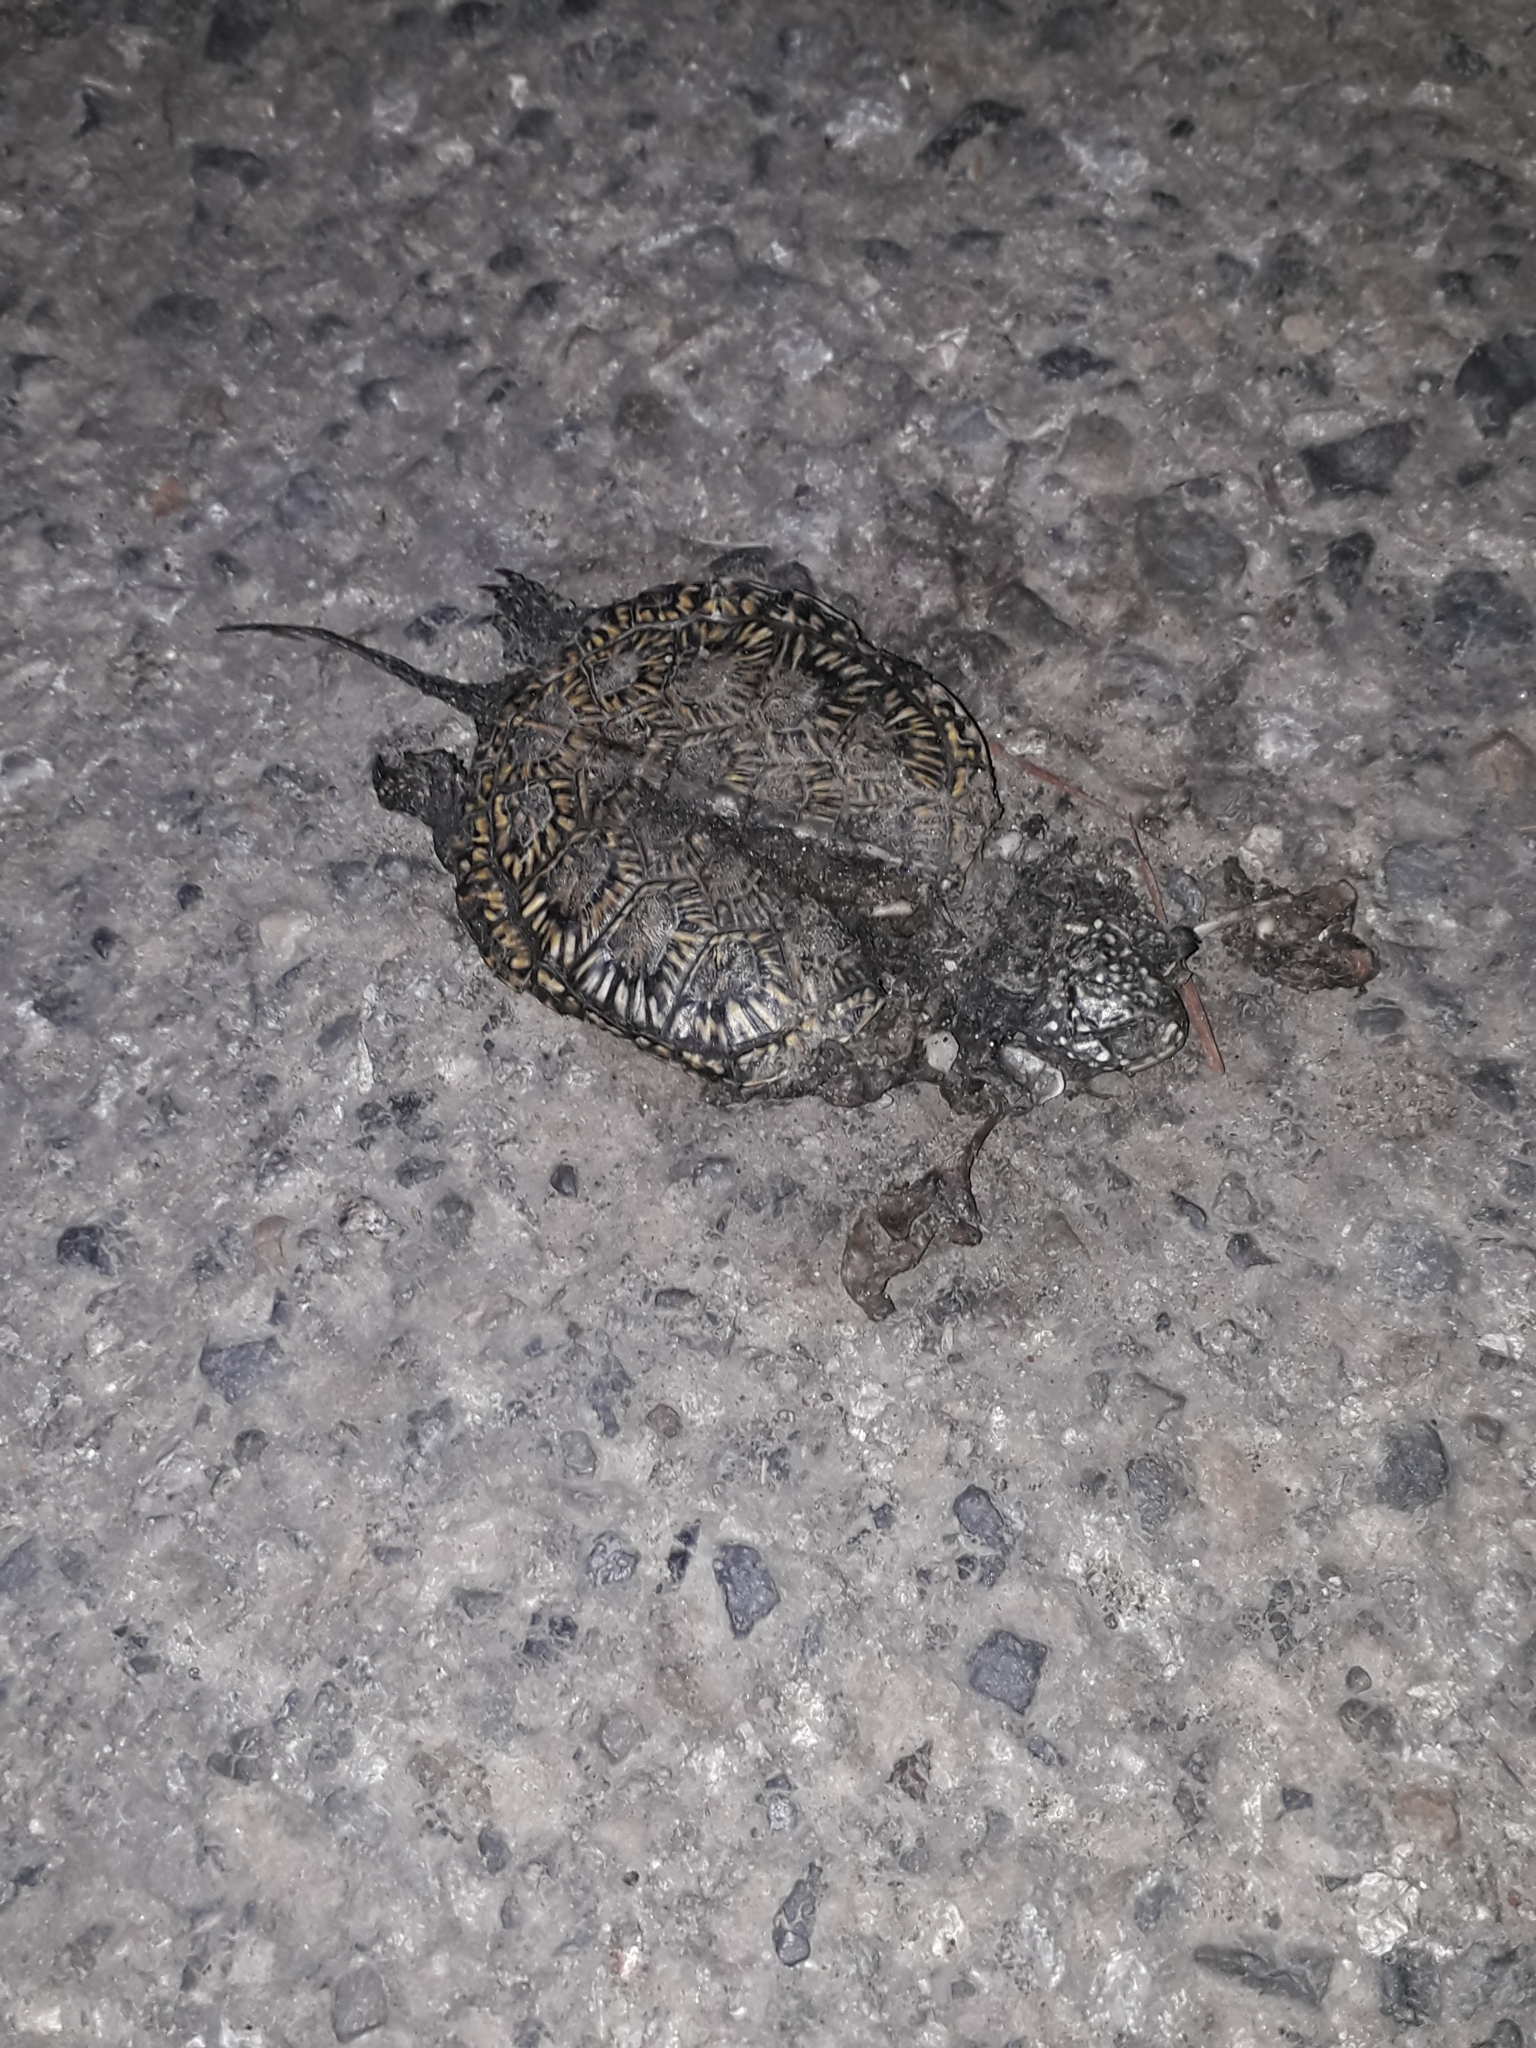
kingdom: Animalia
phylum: Chordata
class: Testudines
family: Emydidae
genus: Emys
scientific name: Emys orbicularis
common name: European pond turtle
